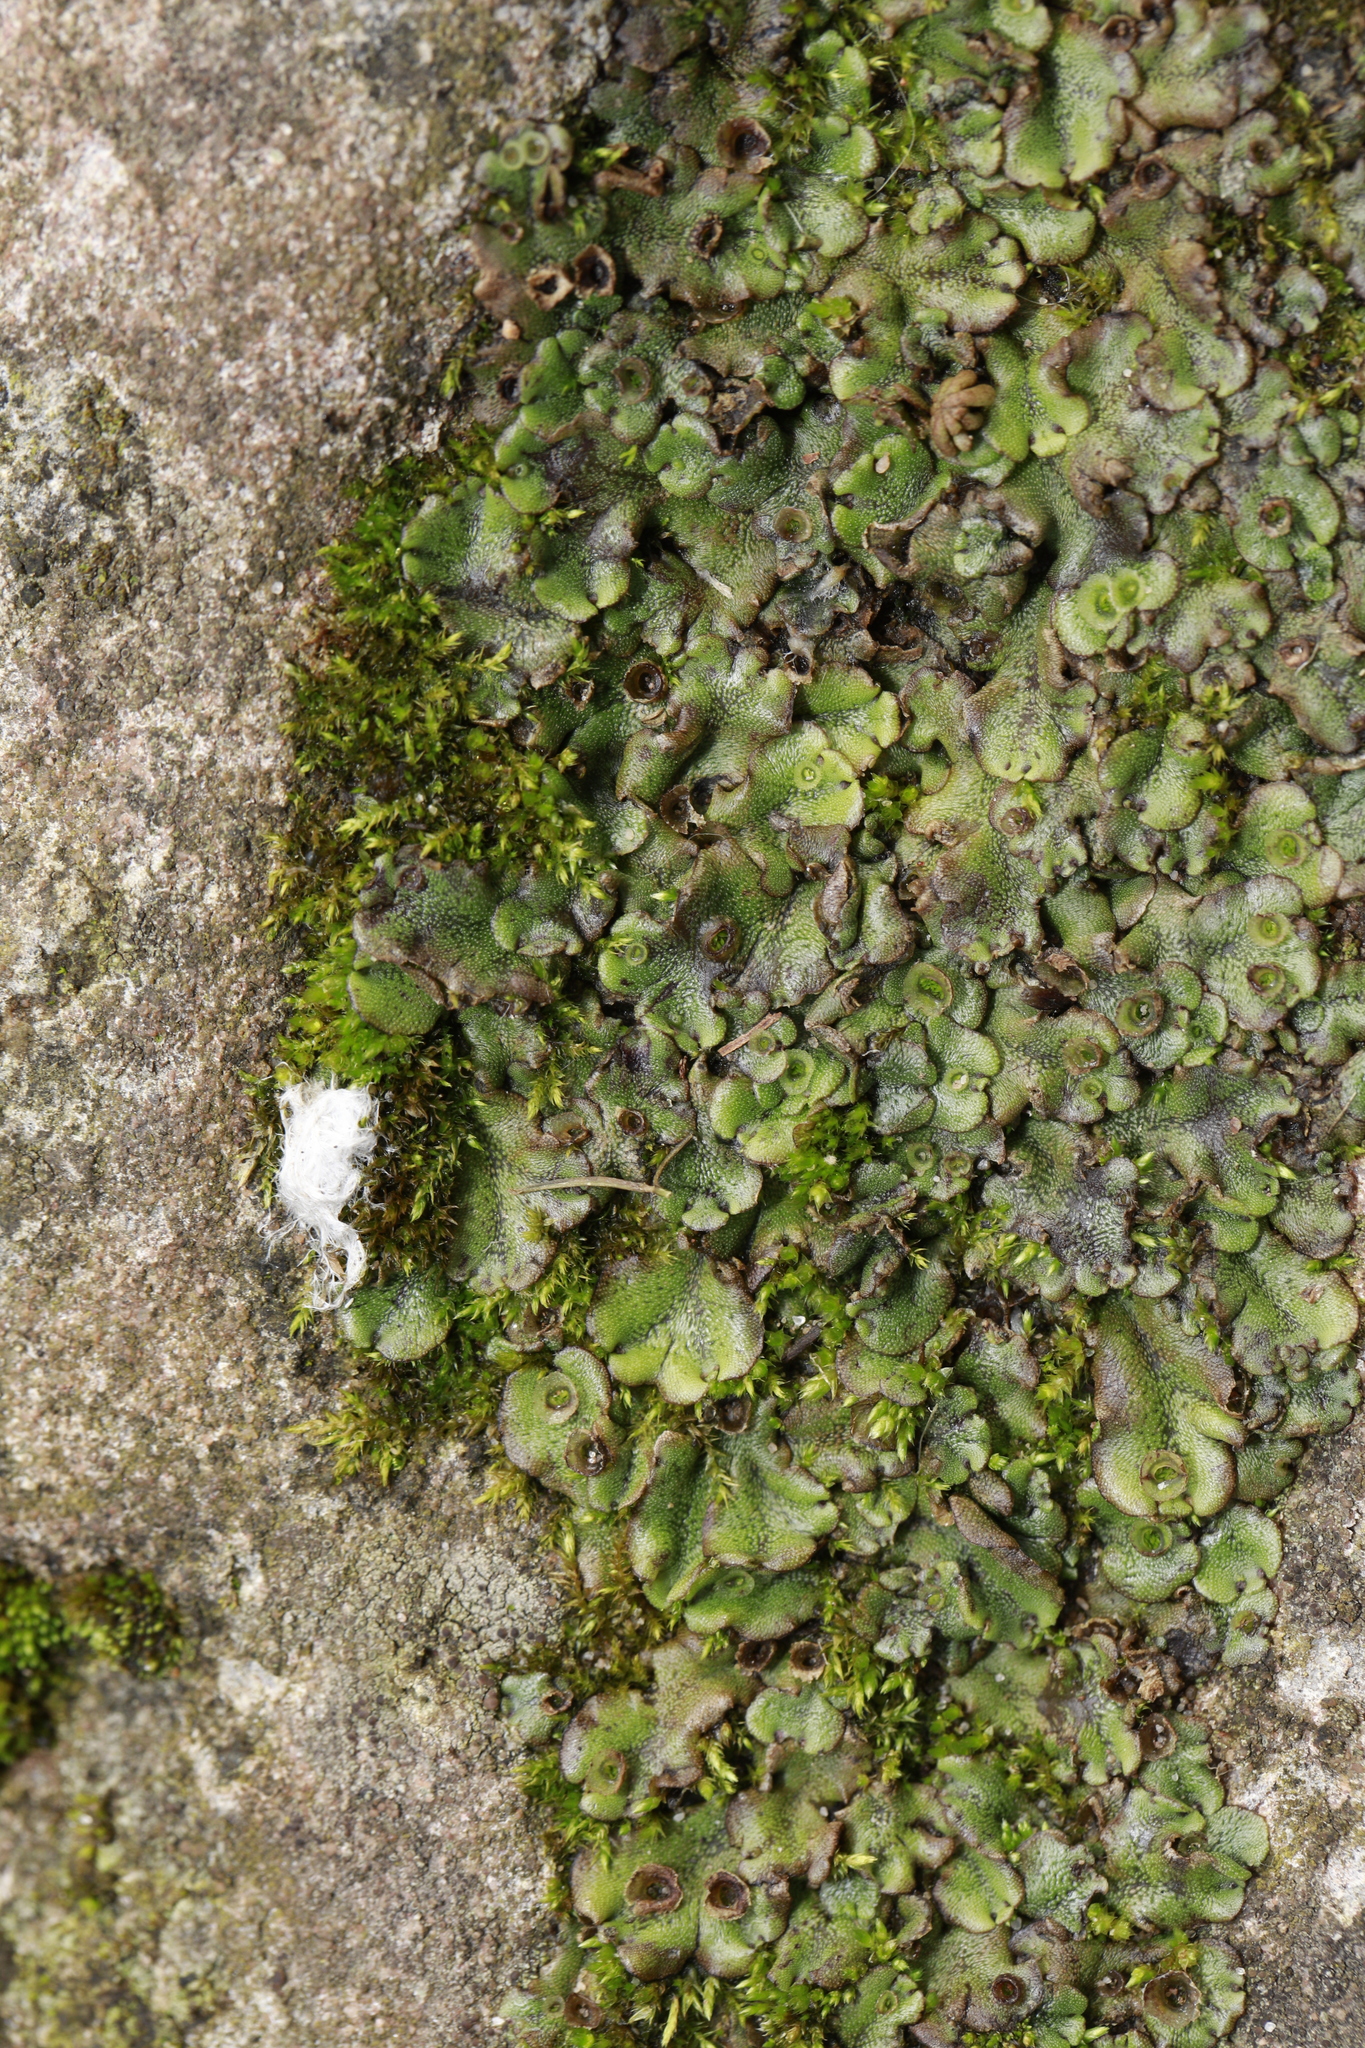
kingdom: Plantae
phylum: Marchantiophyta
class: Marchantiopsida
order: Marchantiales
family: Marchantiaceae
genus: Marchantia
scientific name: Marchantia polymorpha
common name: Common liverwort
